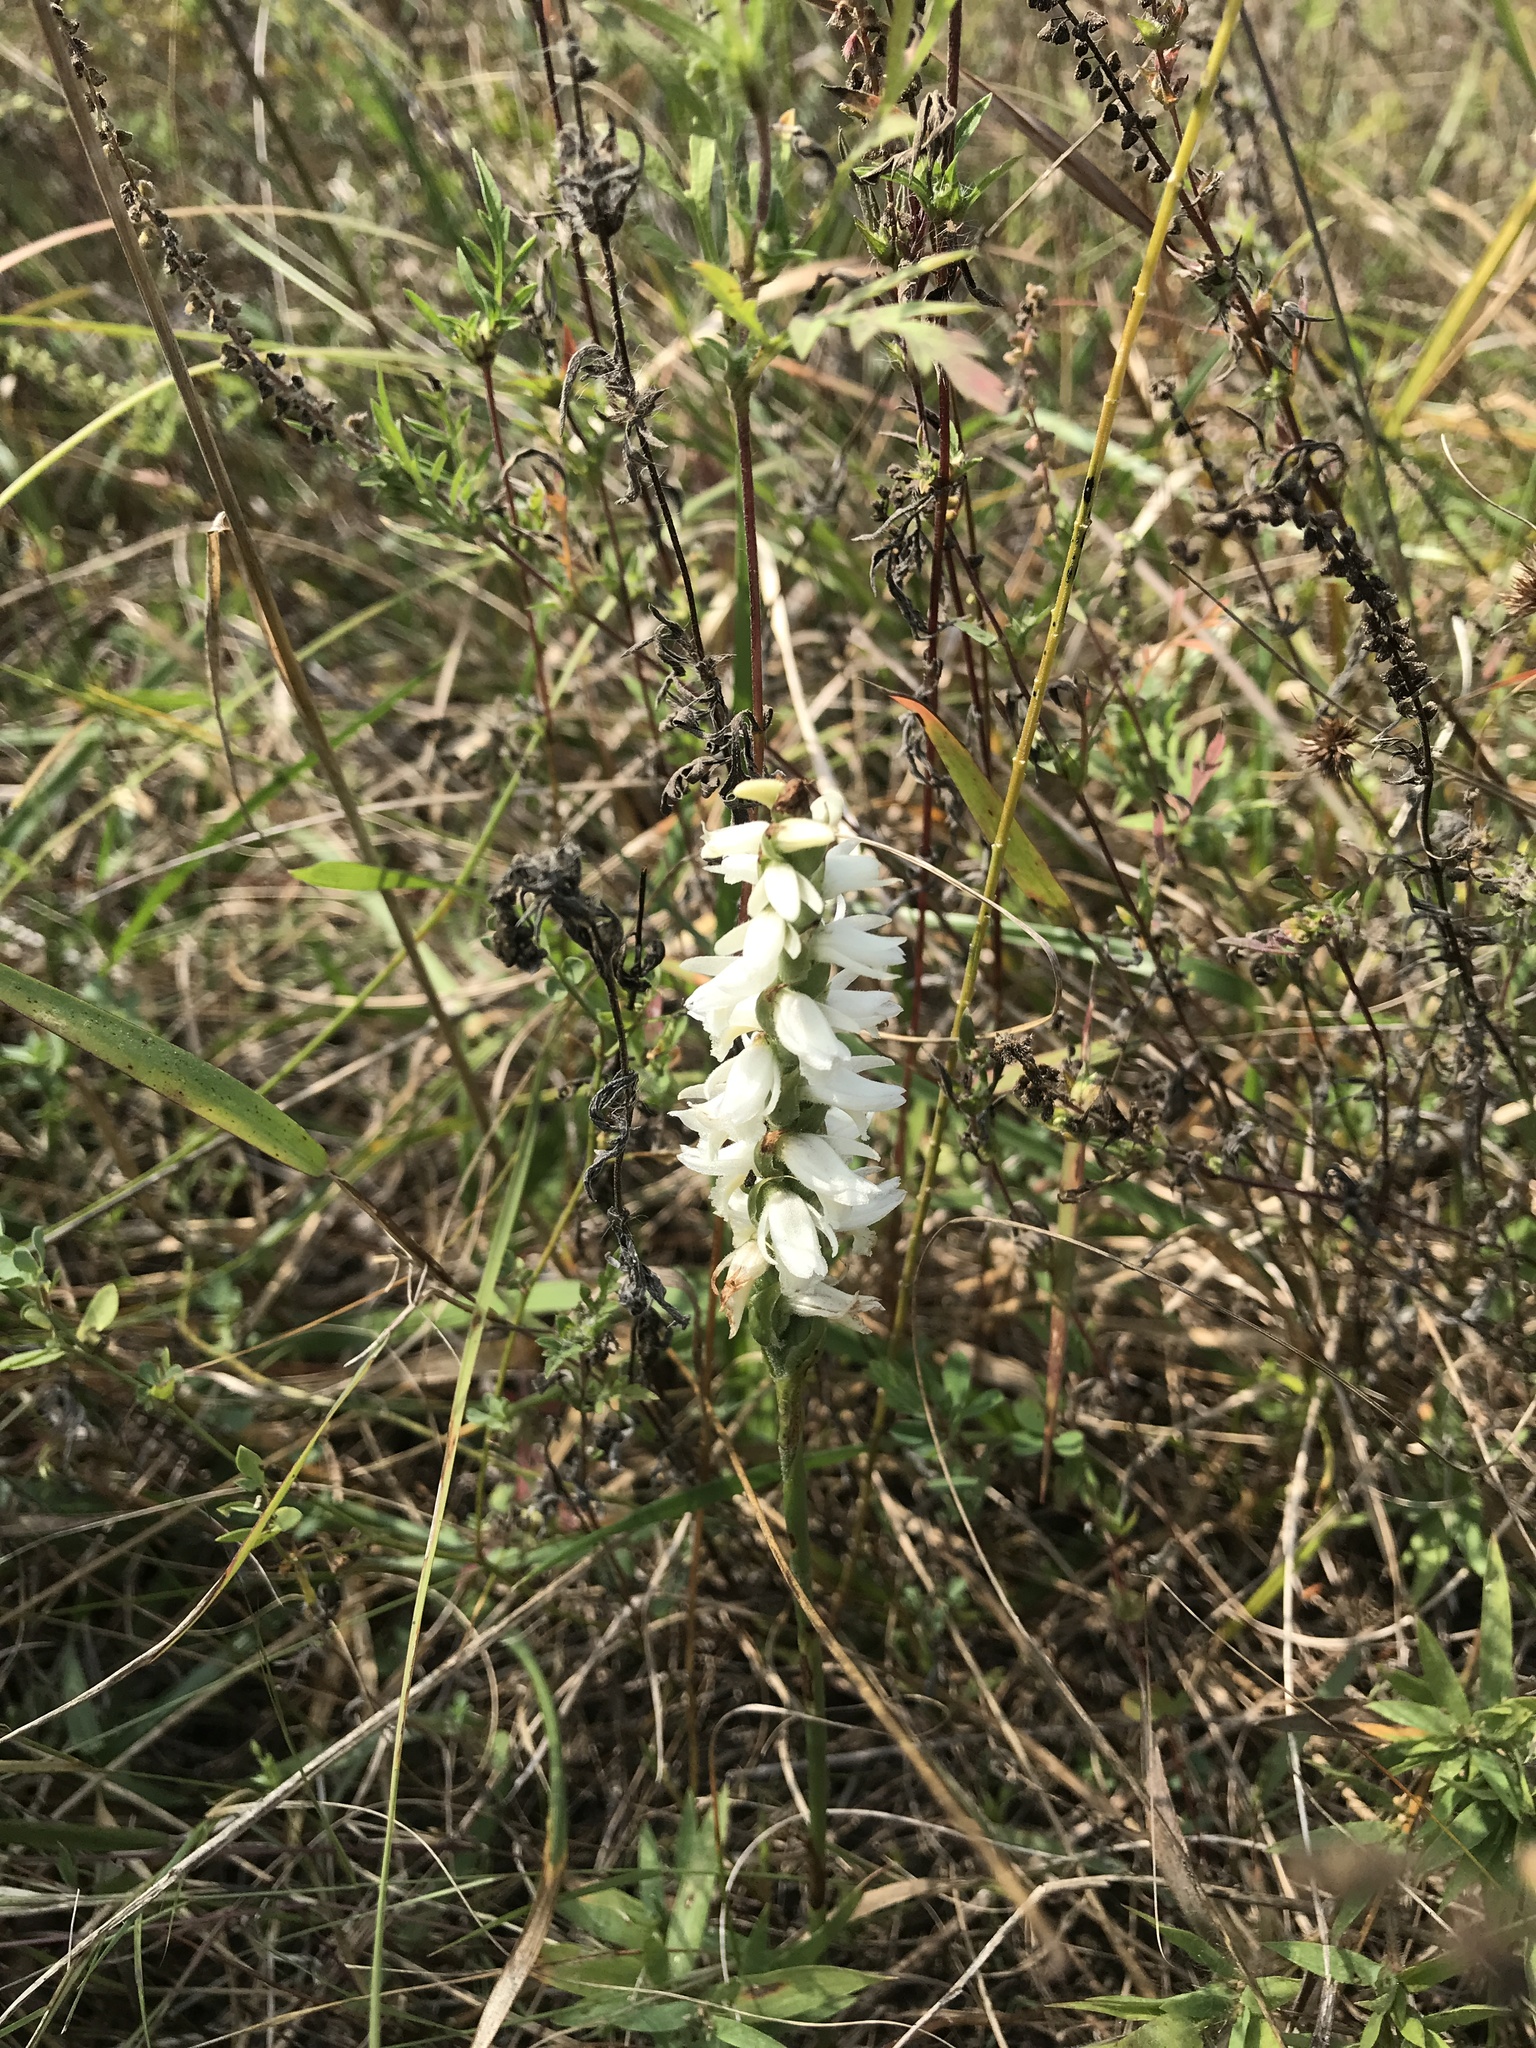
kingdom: Plantae
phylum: Tracheophyta
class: Liliopsida
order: Asparagales
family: Orchidaceae
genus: Spiranthes
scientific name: Spiranthes magnicamporum
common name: Great plains ladies'-tresses
